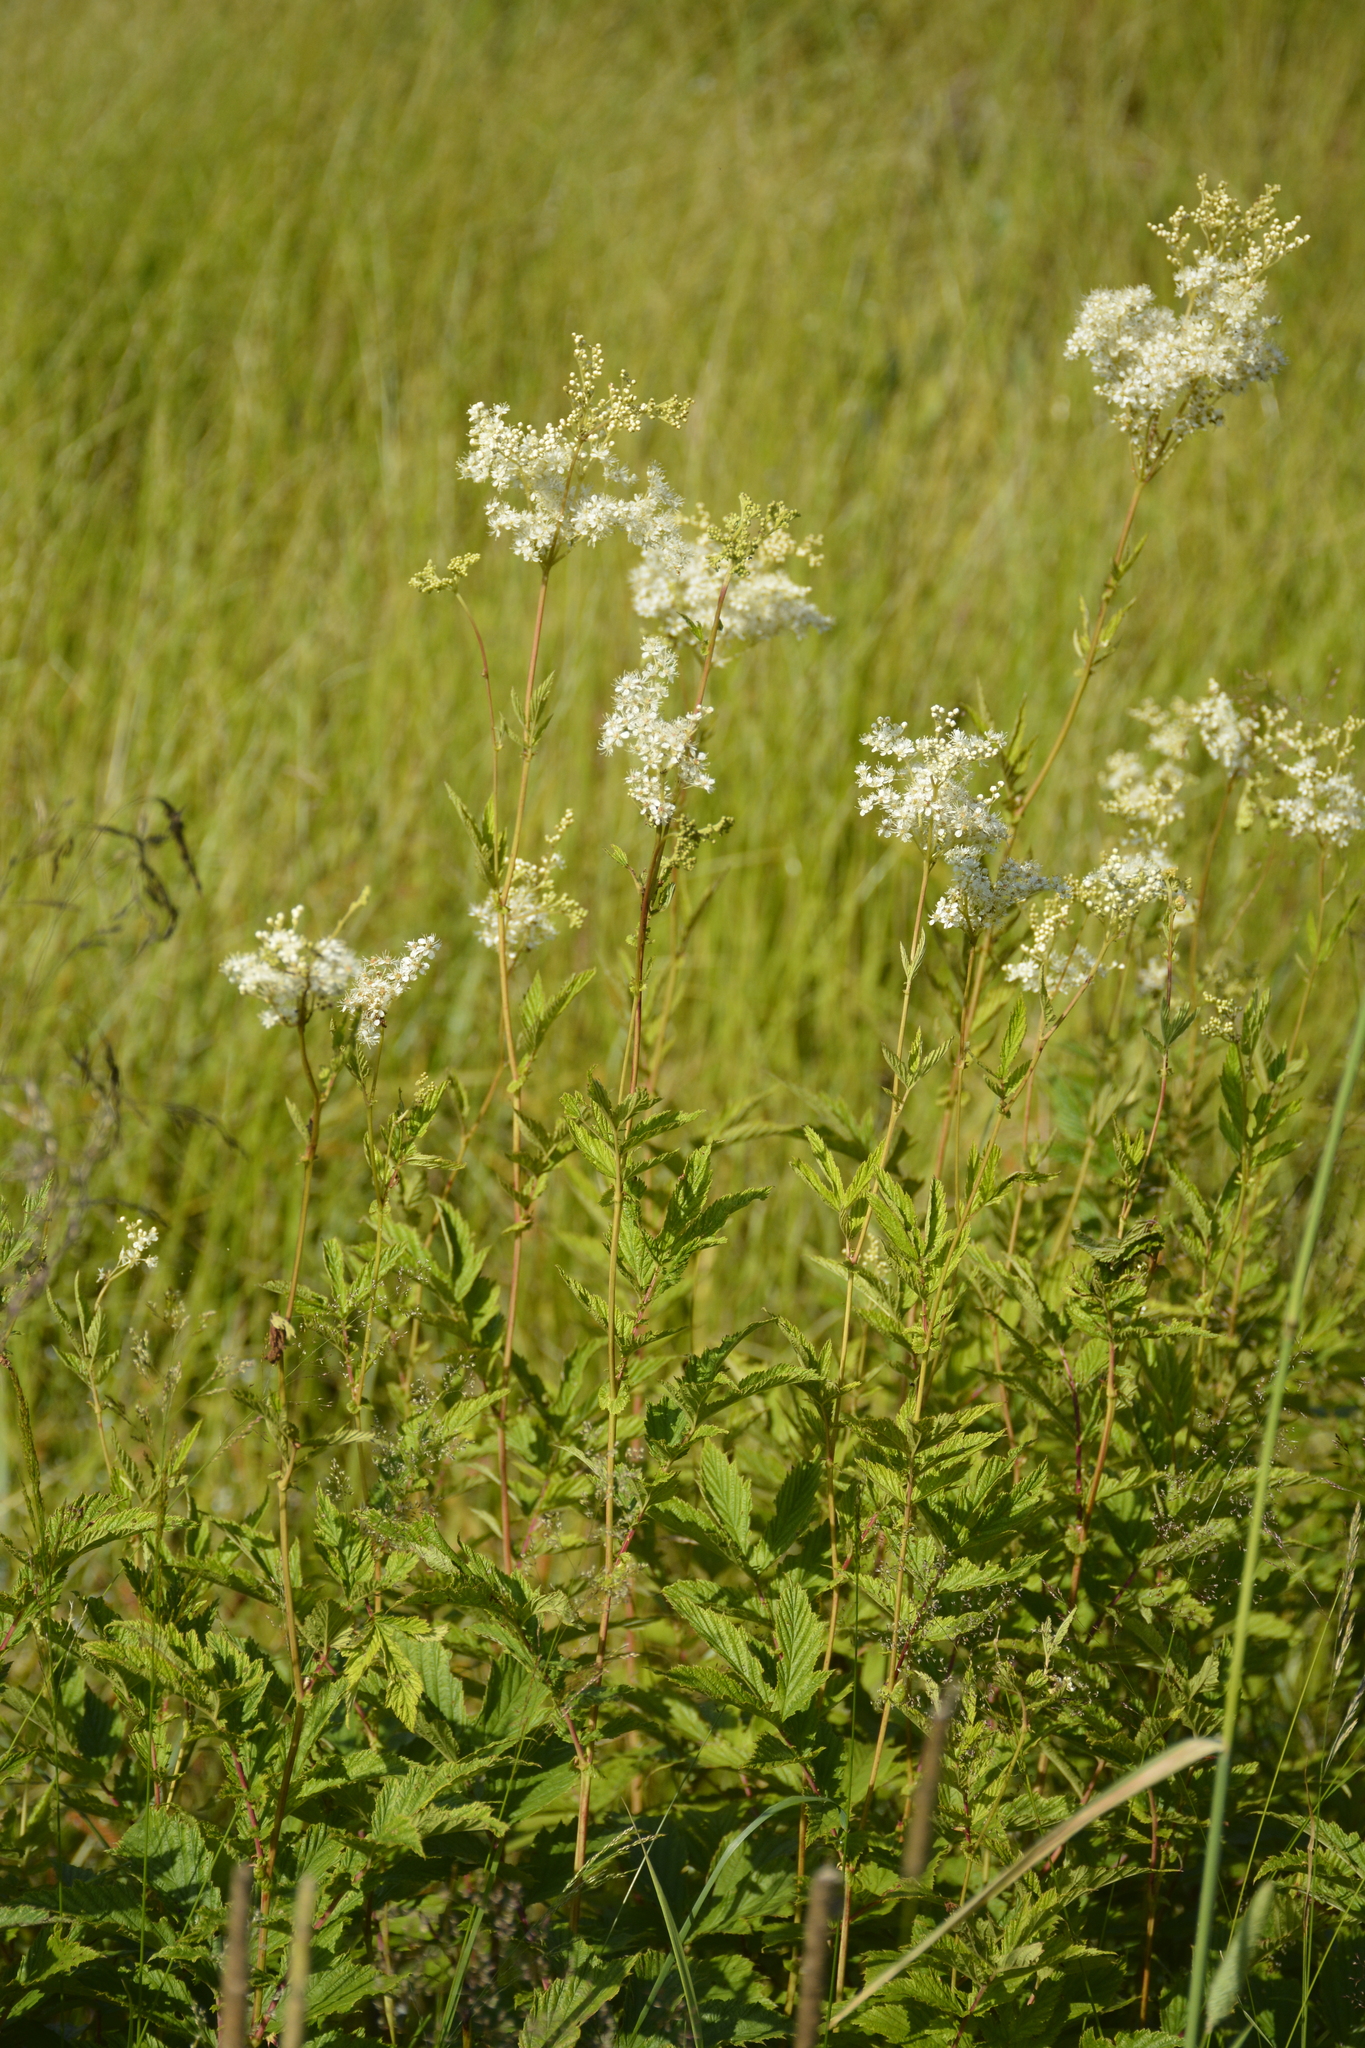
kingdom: Plantae
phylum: Tracheophyta
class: Magnoliopsida
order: Rosales
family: Rosaceae
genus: Filipendula
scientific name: Filipendula ulmaria
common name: Meadowsweet
